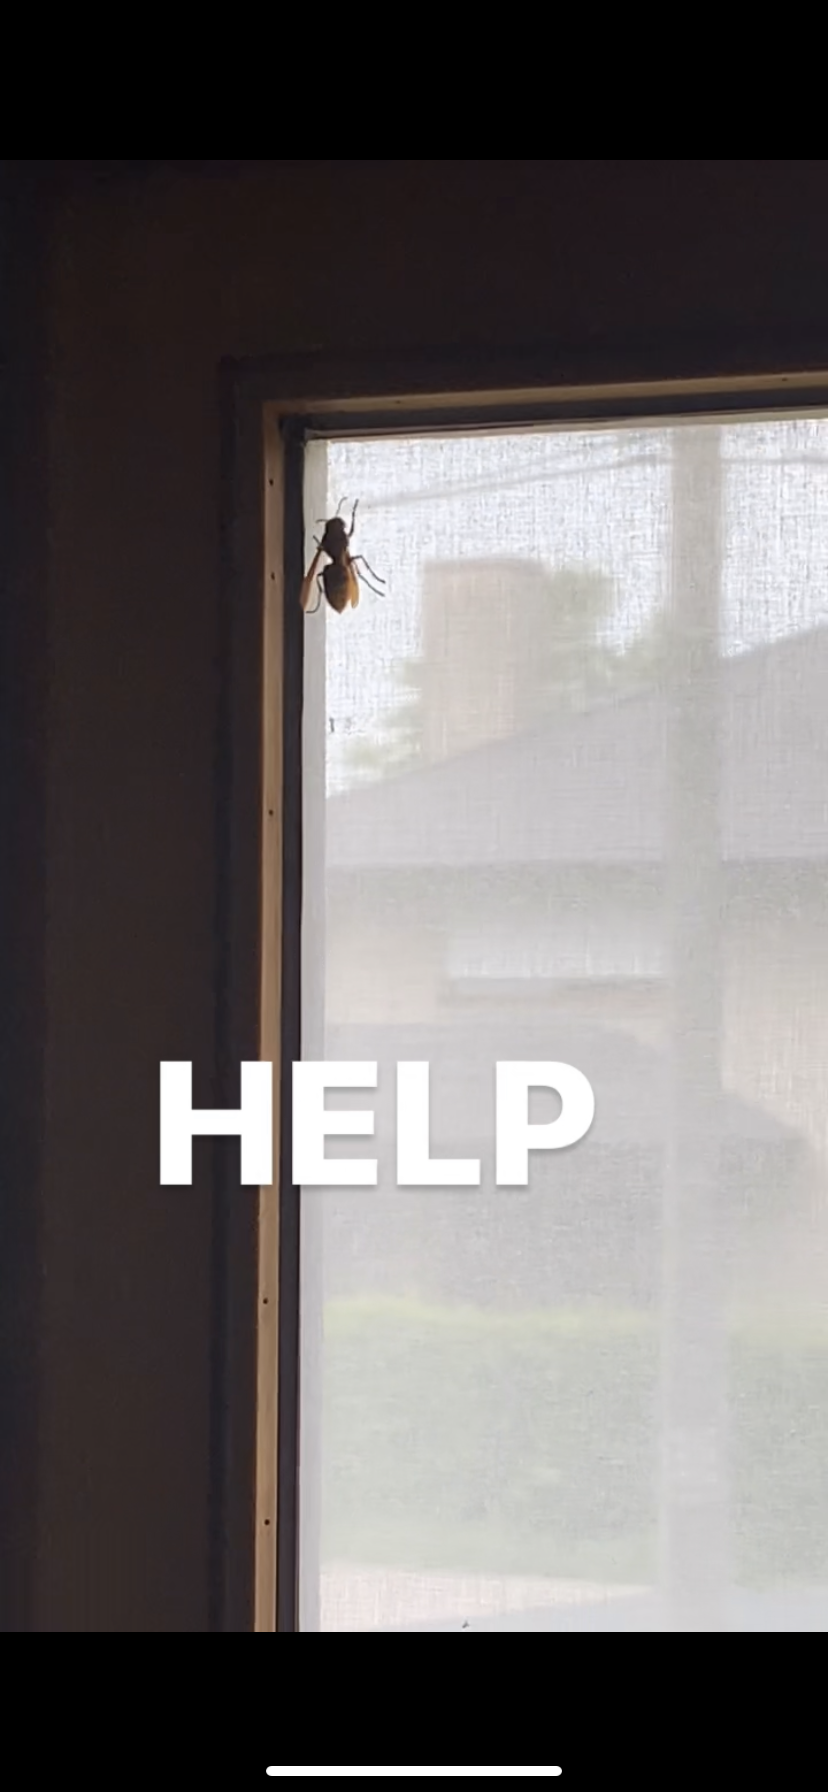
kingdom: Animalia
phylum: Arthropoda
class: Insecta
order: Hymenoptera
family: Vespidae
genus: Vespa
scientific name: Vespa crabro
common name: Hornet
